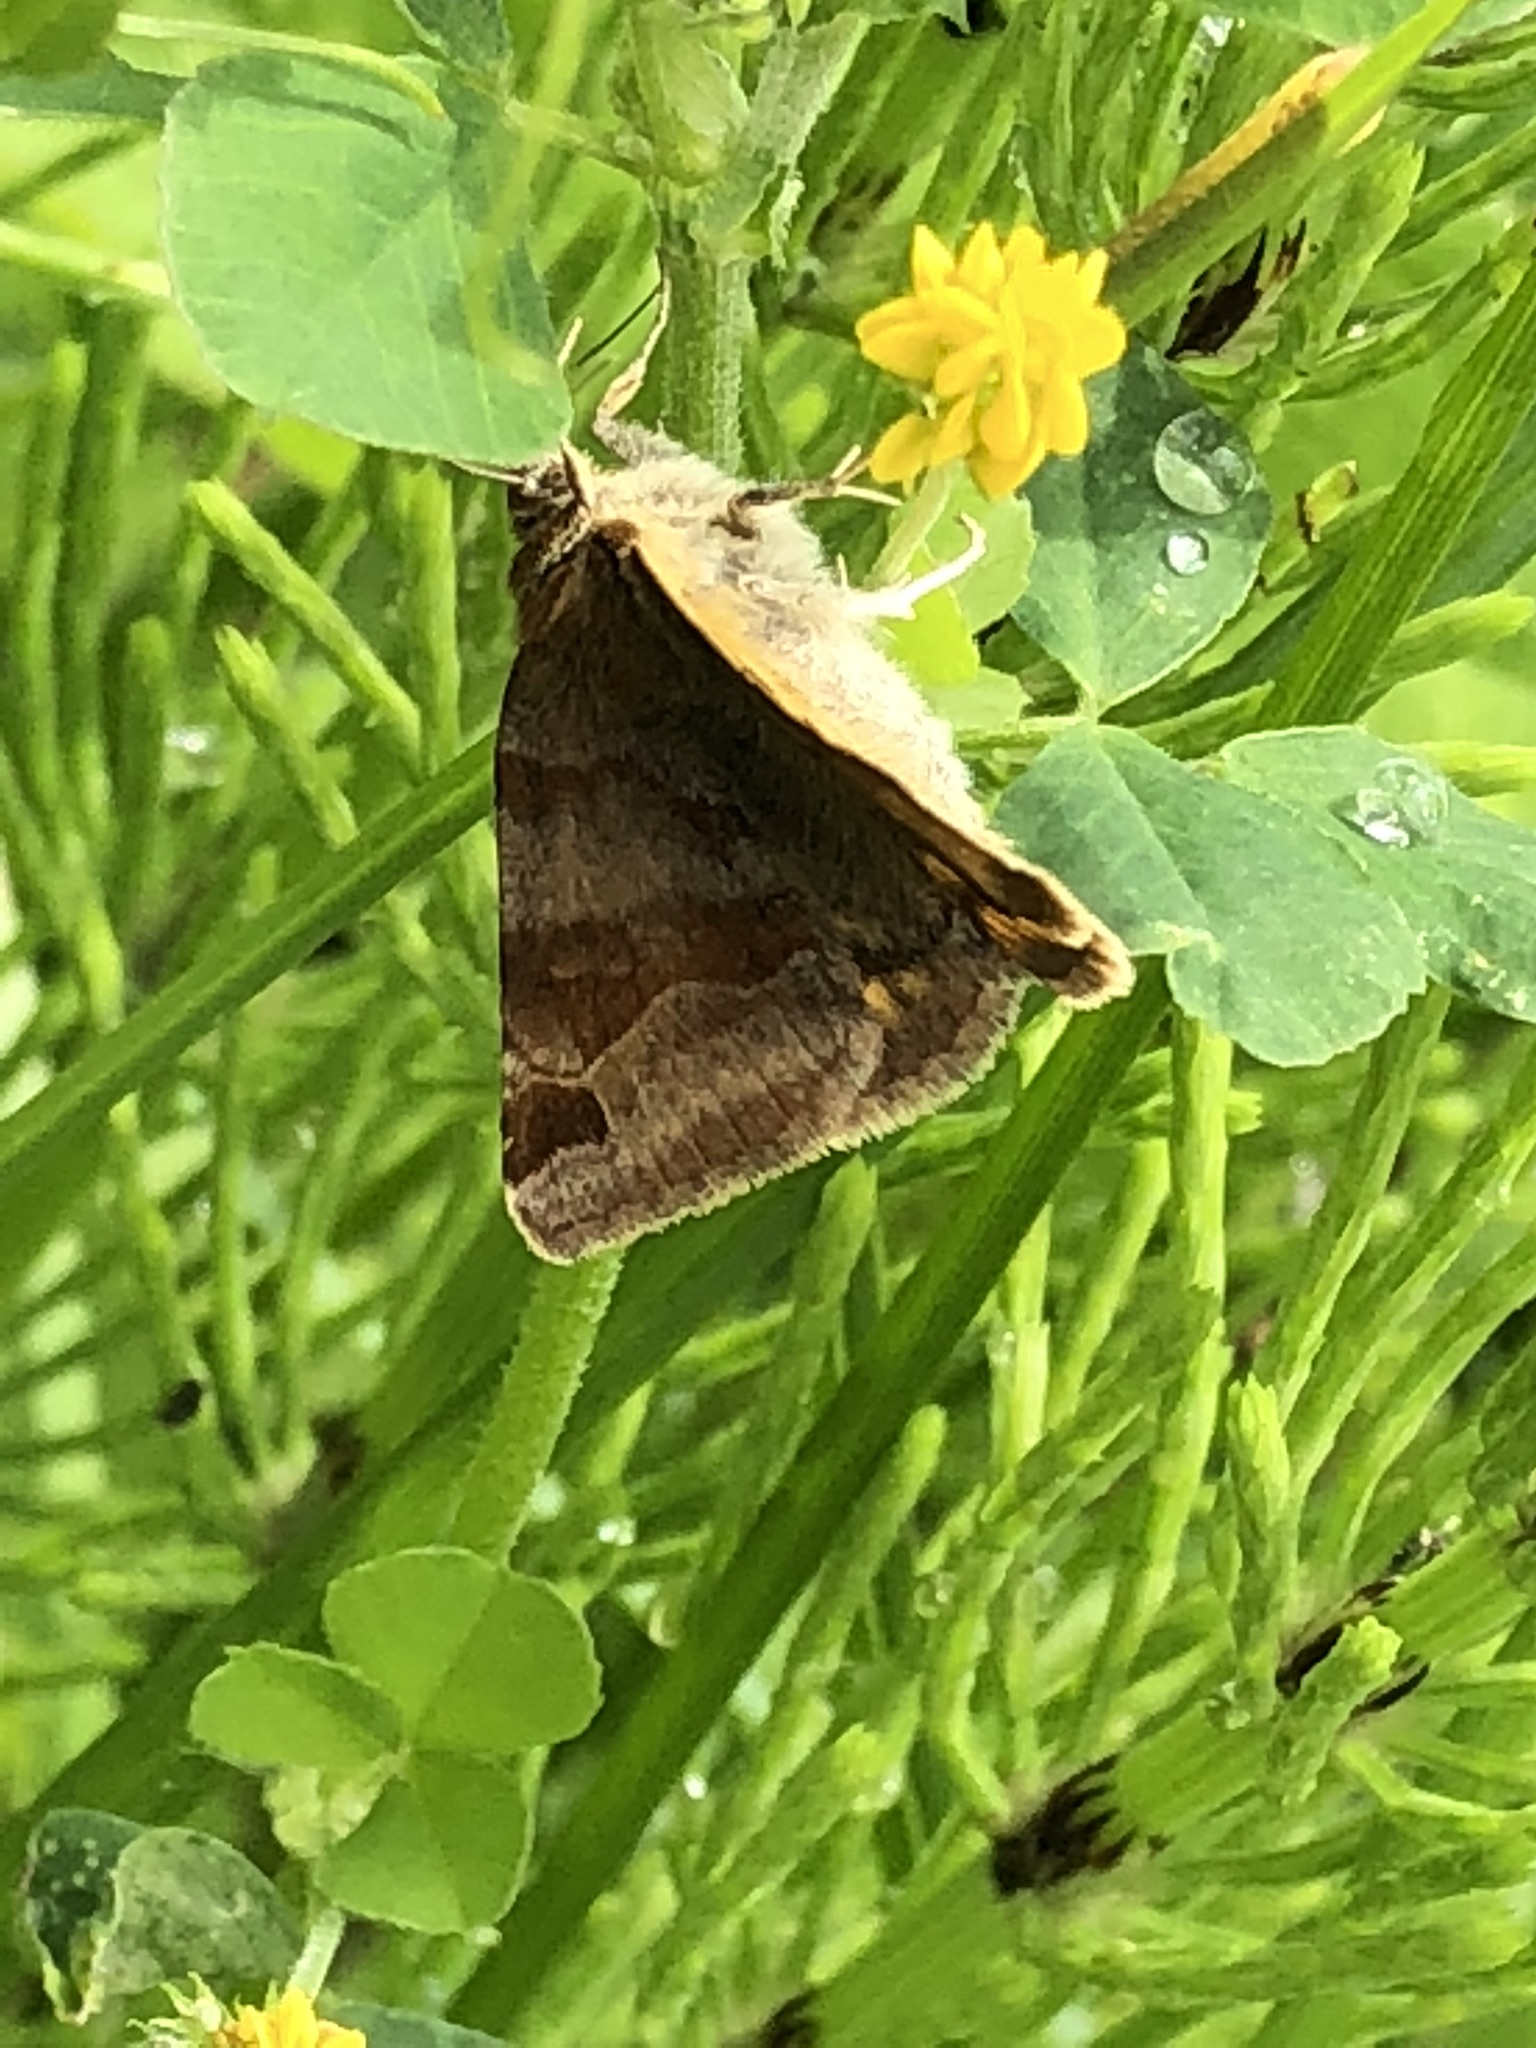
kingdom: Animalia
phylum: Arthropoda
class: Insecta
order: Lepidoptera
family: Erebidae
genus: Euclidia
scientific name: Euclidia glyphica
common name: Burnet companion
